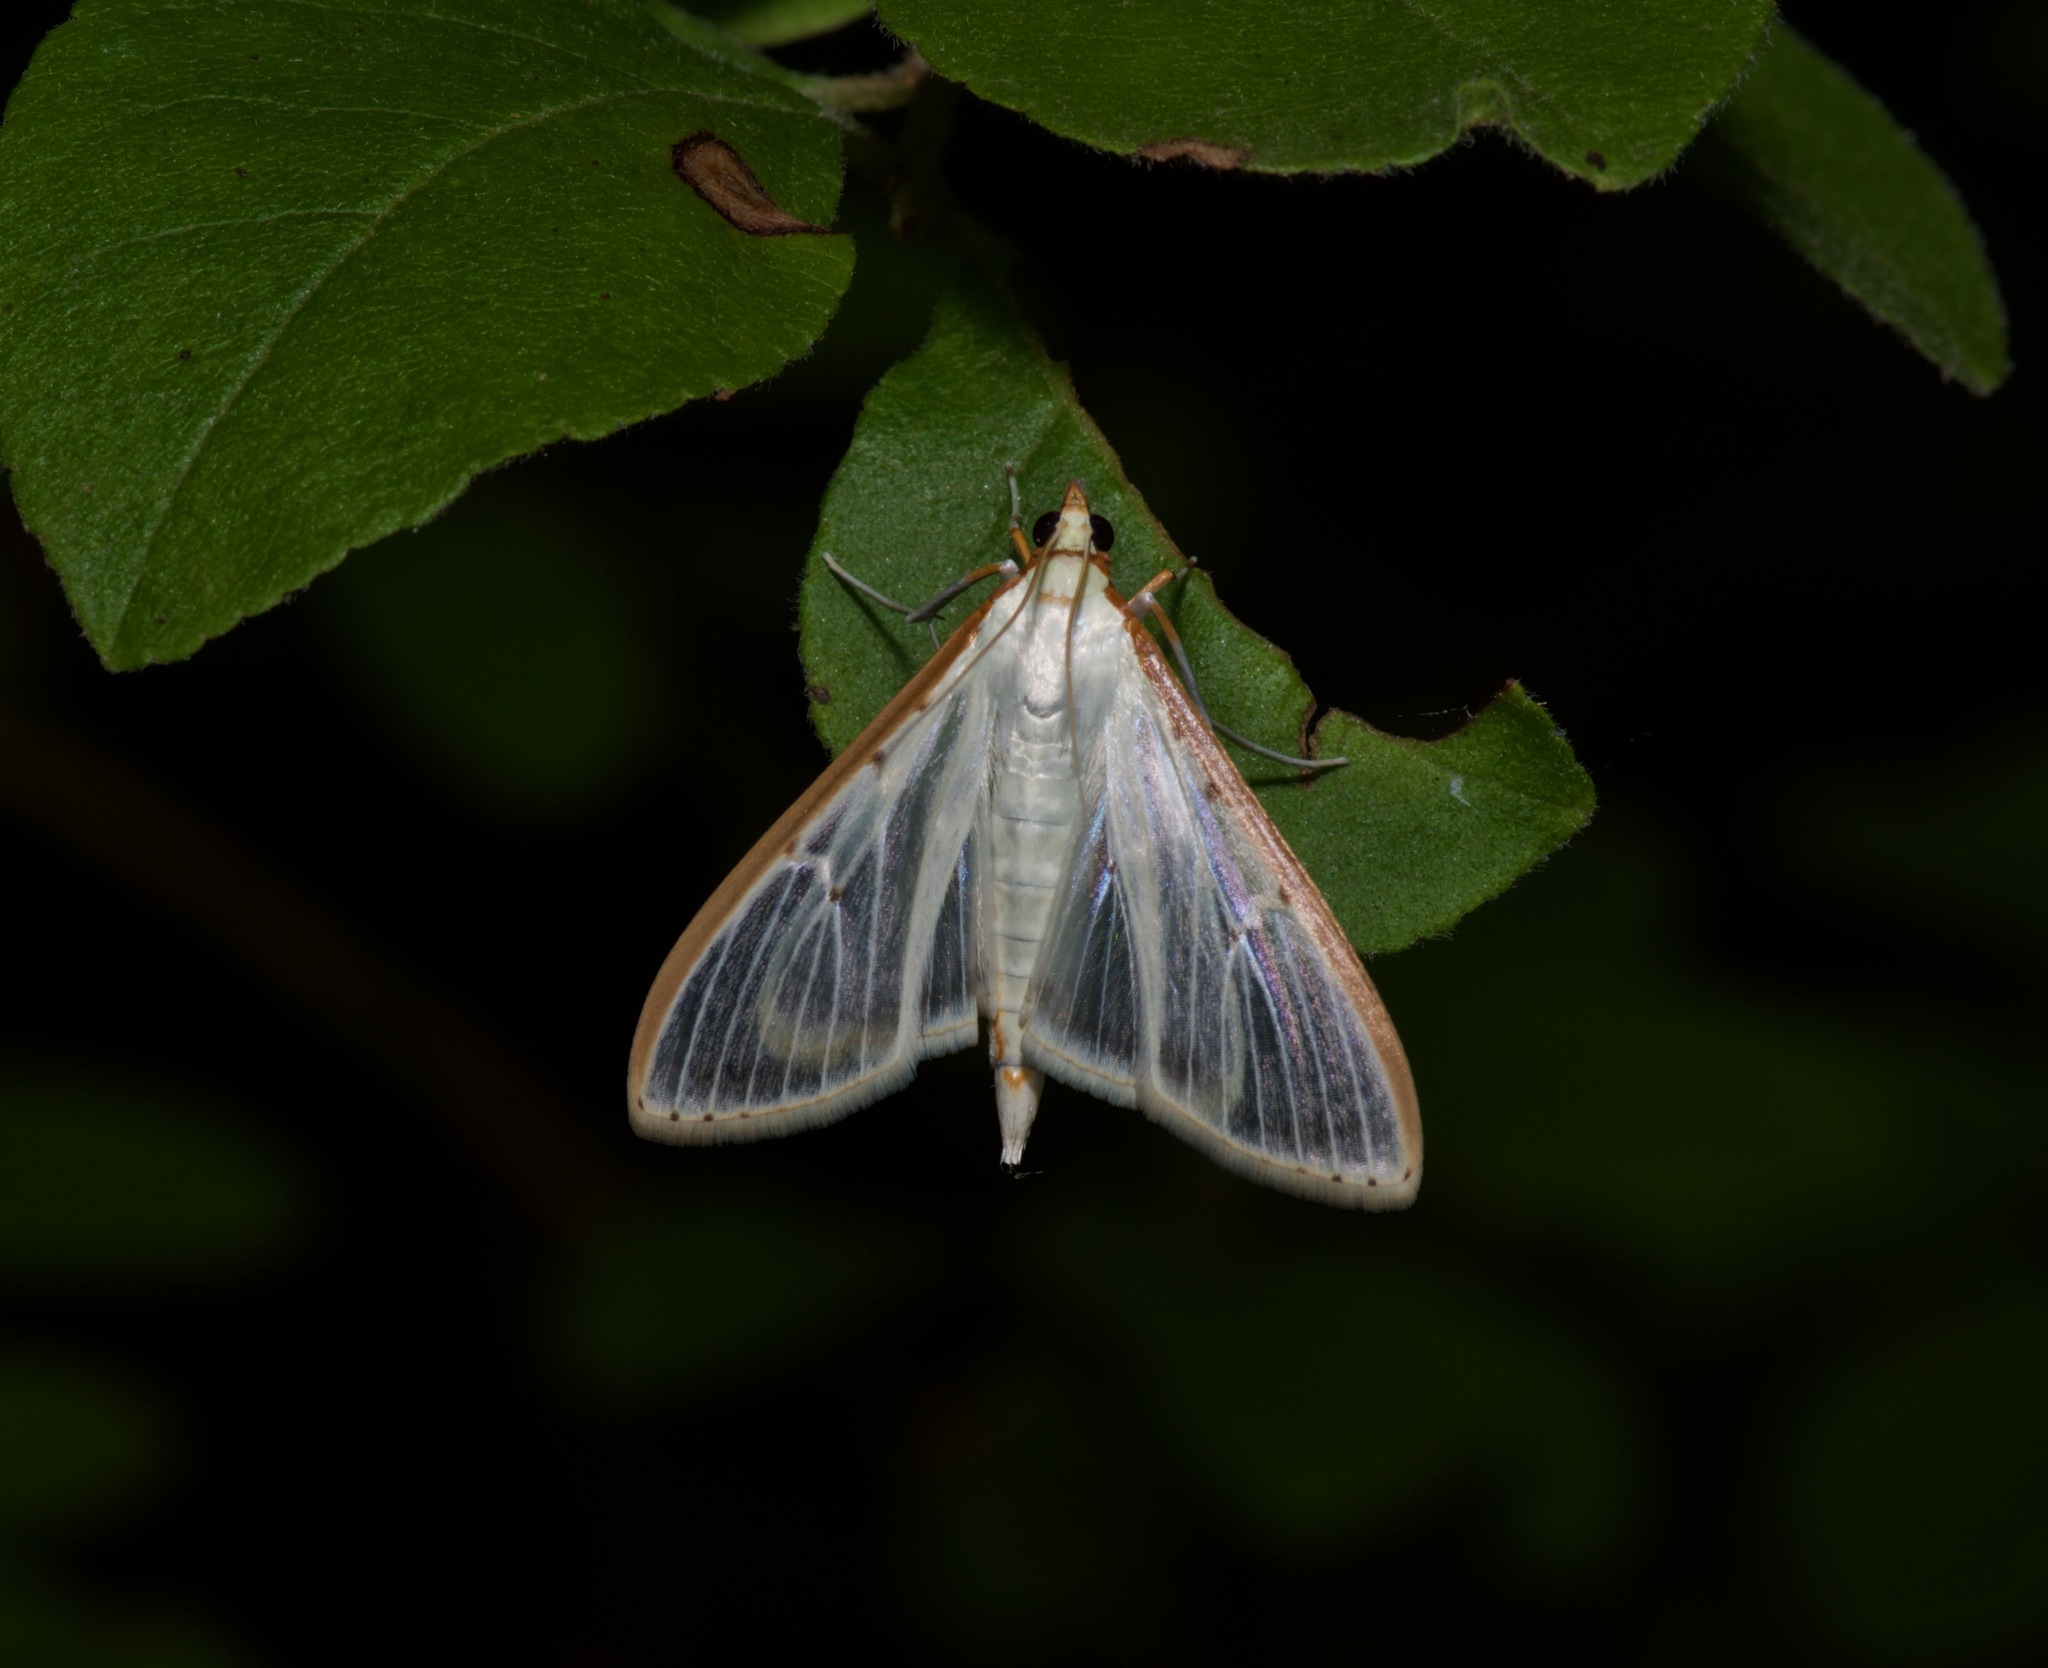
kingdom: Animalia
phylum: Arthropoda
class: Insecta
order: Lepidoptera
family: Crambidae
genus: Palpita
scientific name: Palpita quadristigmalis
